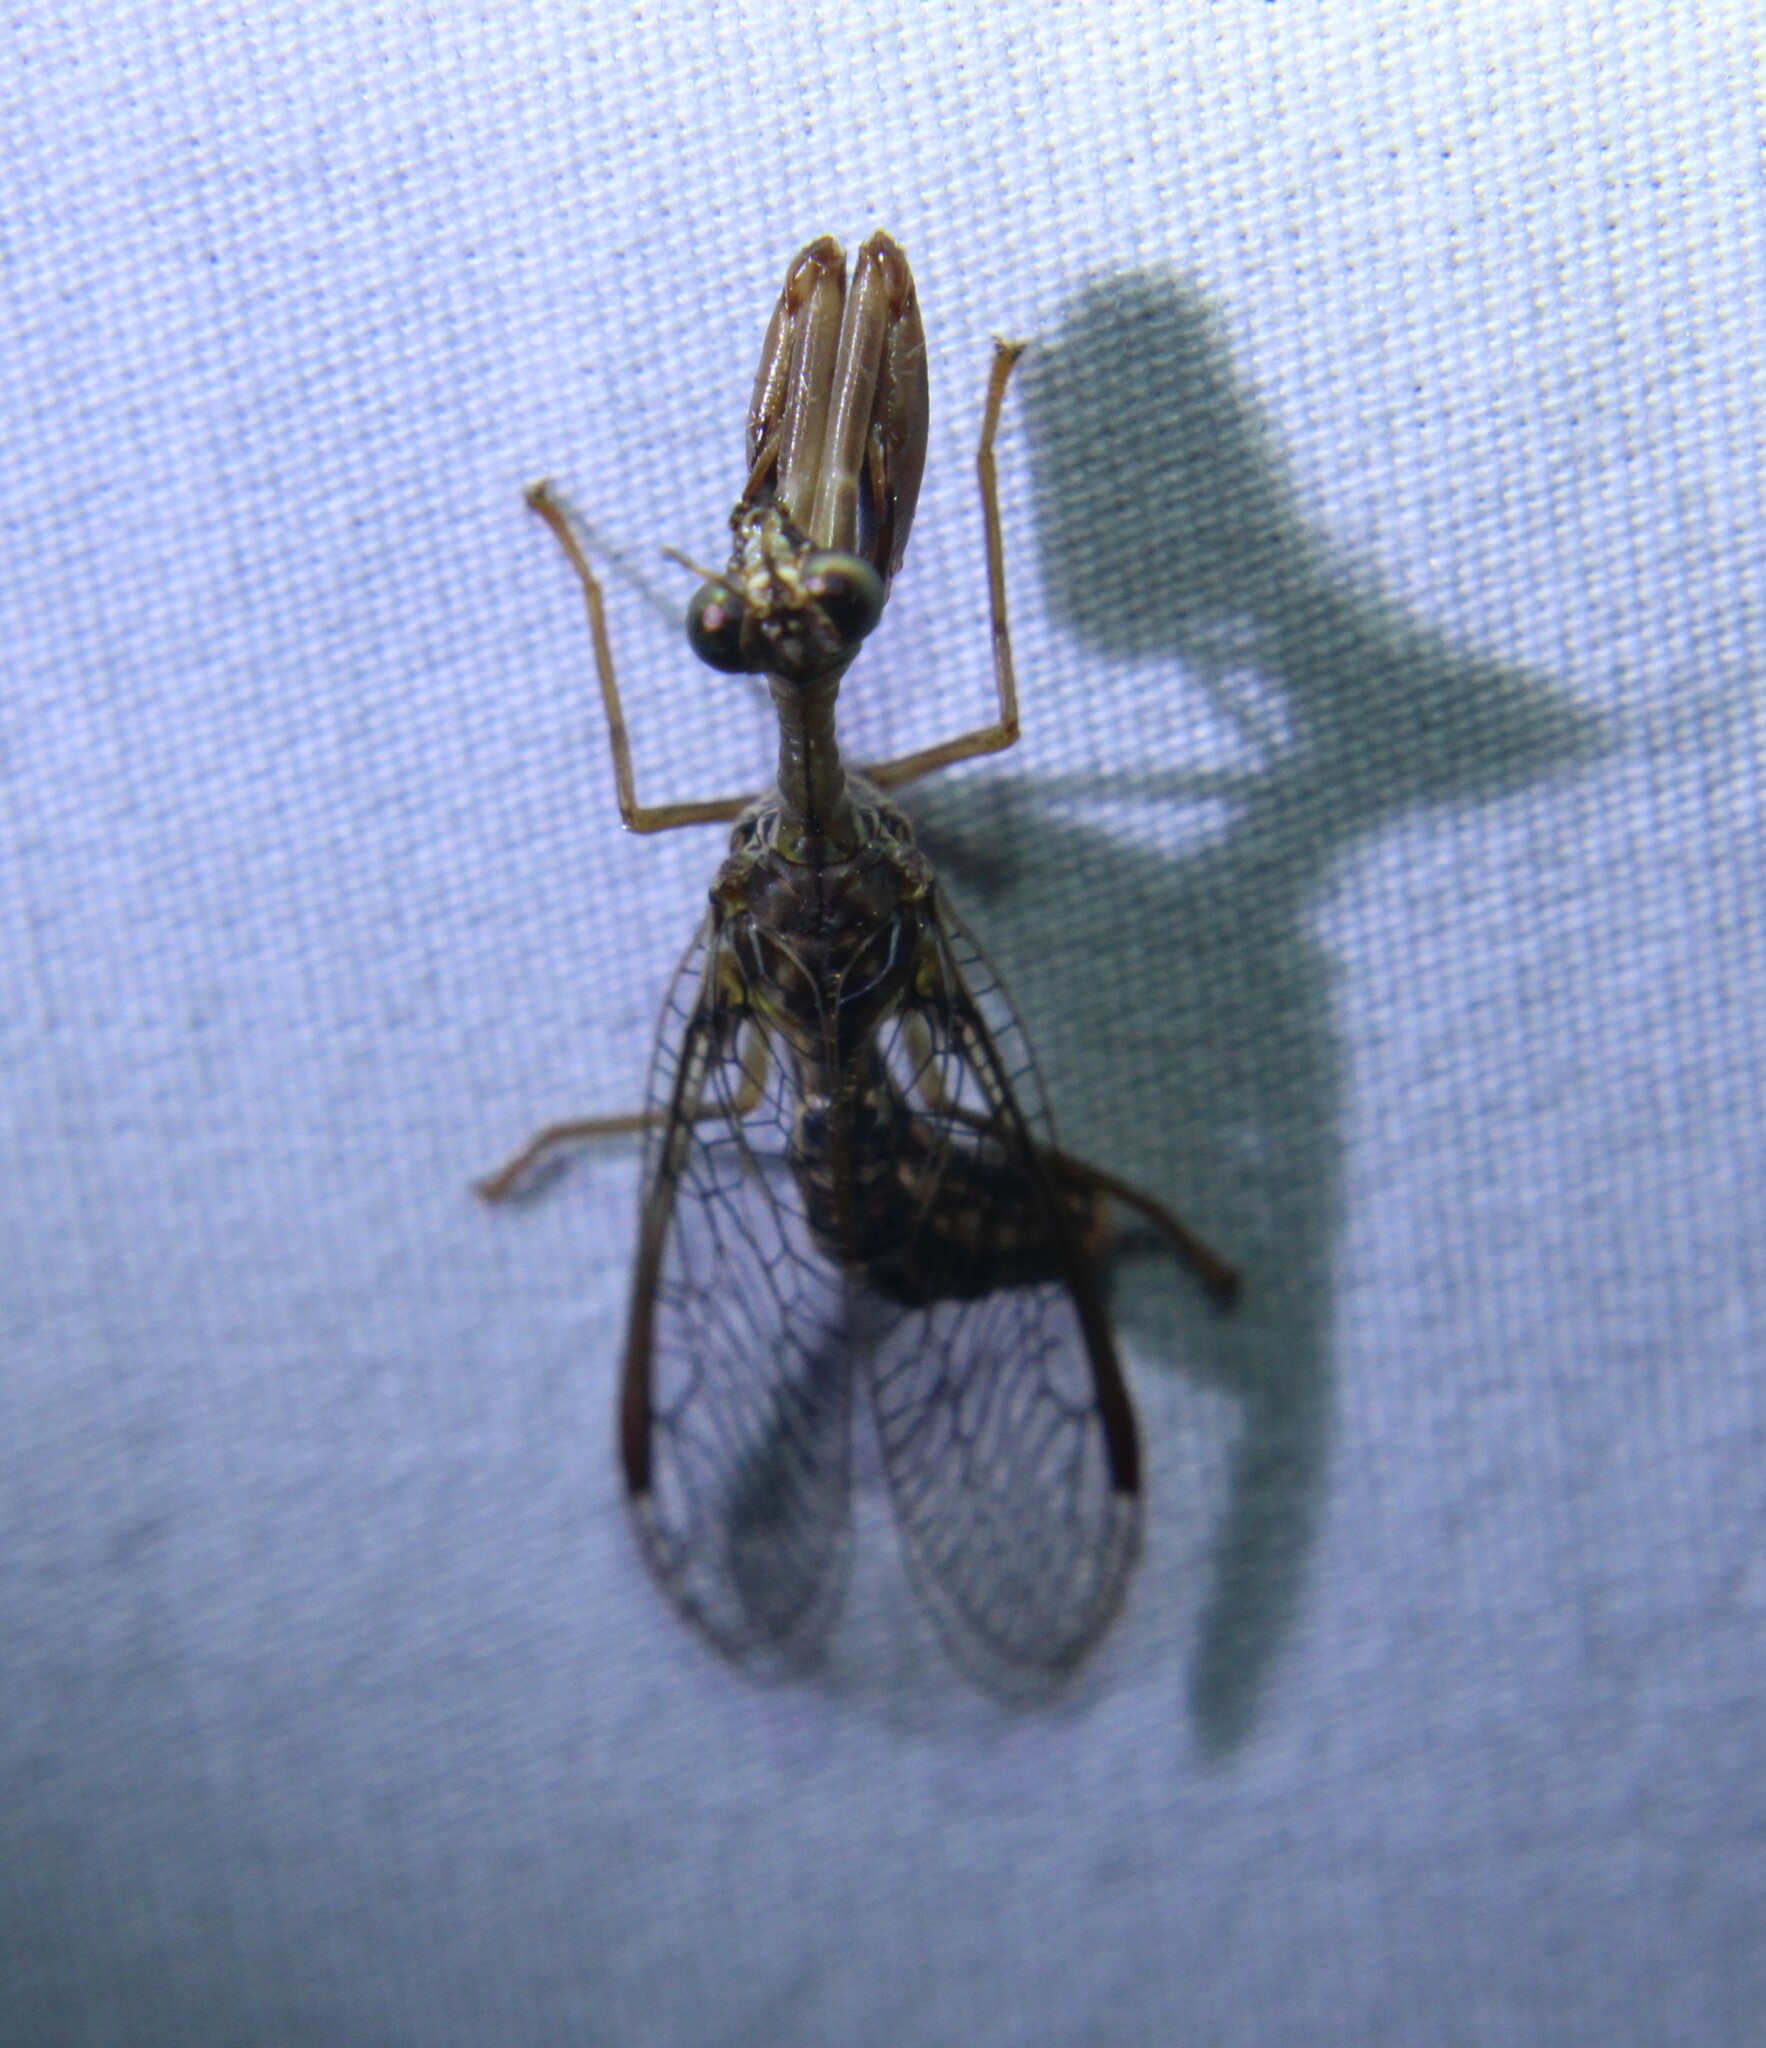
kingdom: Animalia
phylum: Arthropoda
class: Insecta
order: Neuroptera
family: Mantispidae
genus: Dicromantispa
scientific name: Dicromantispa sayi
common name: Say's mantidfly
